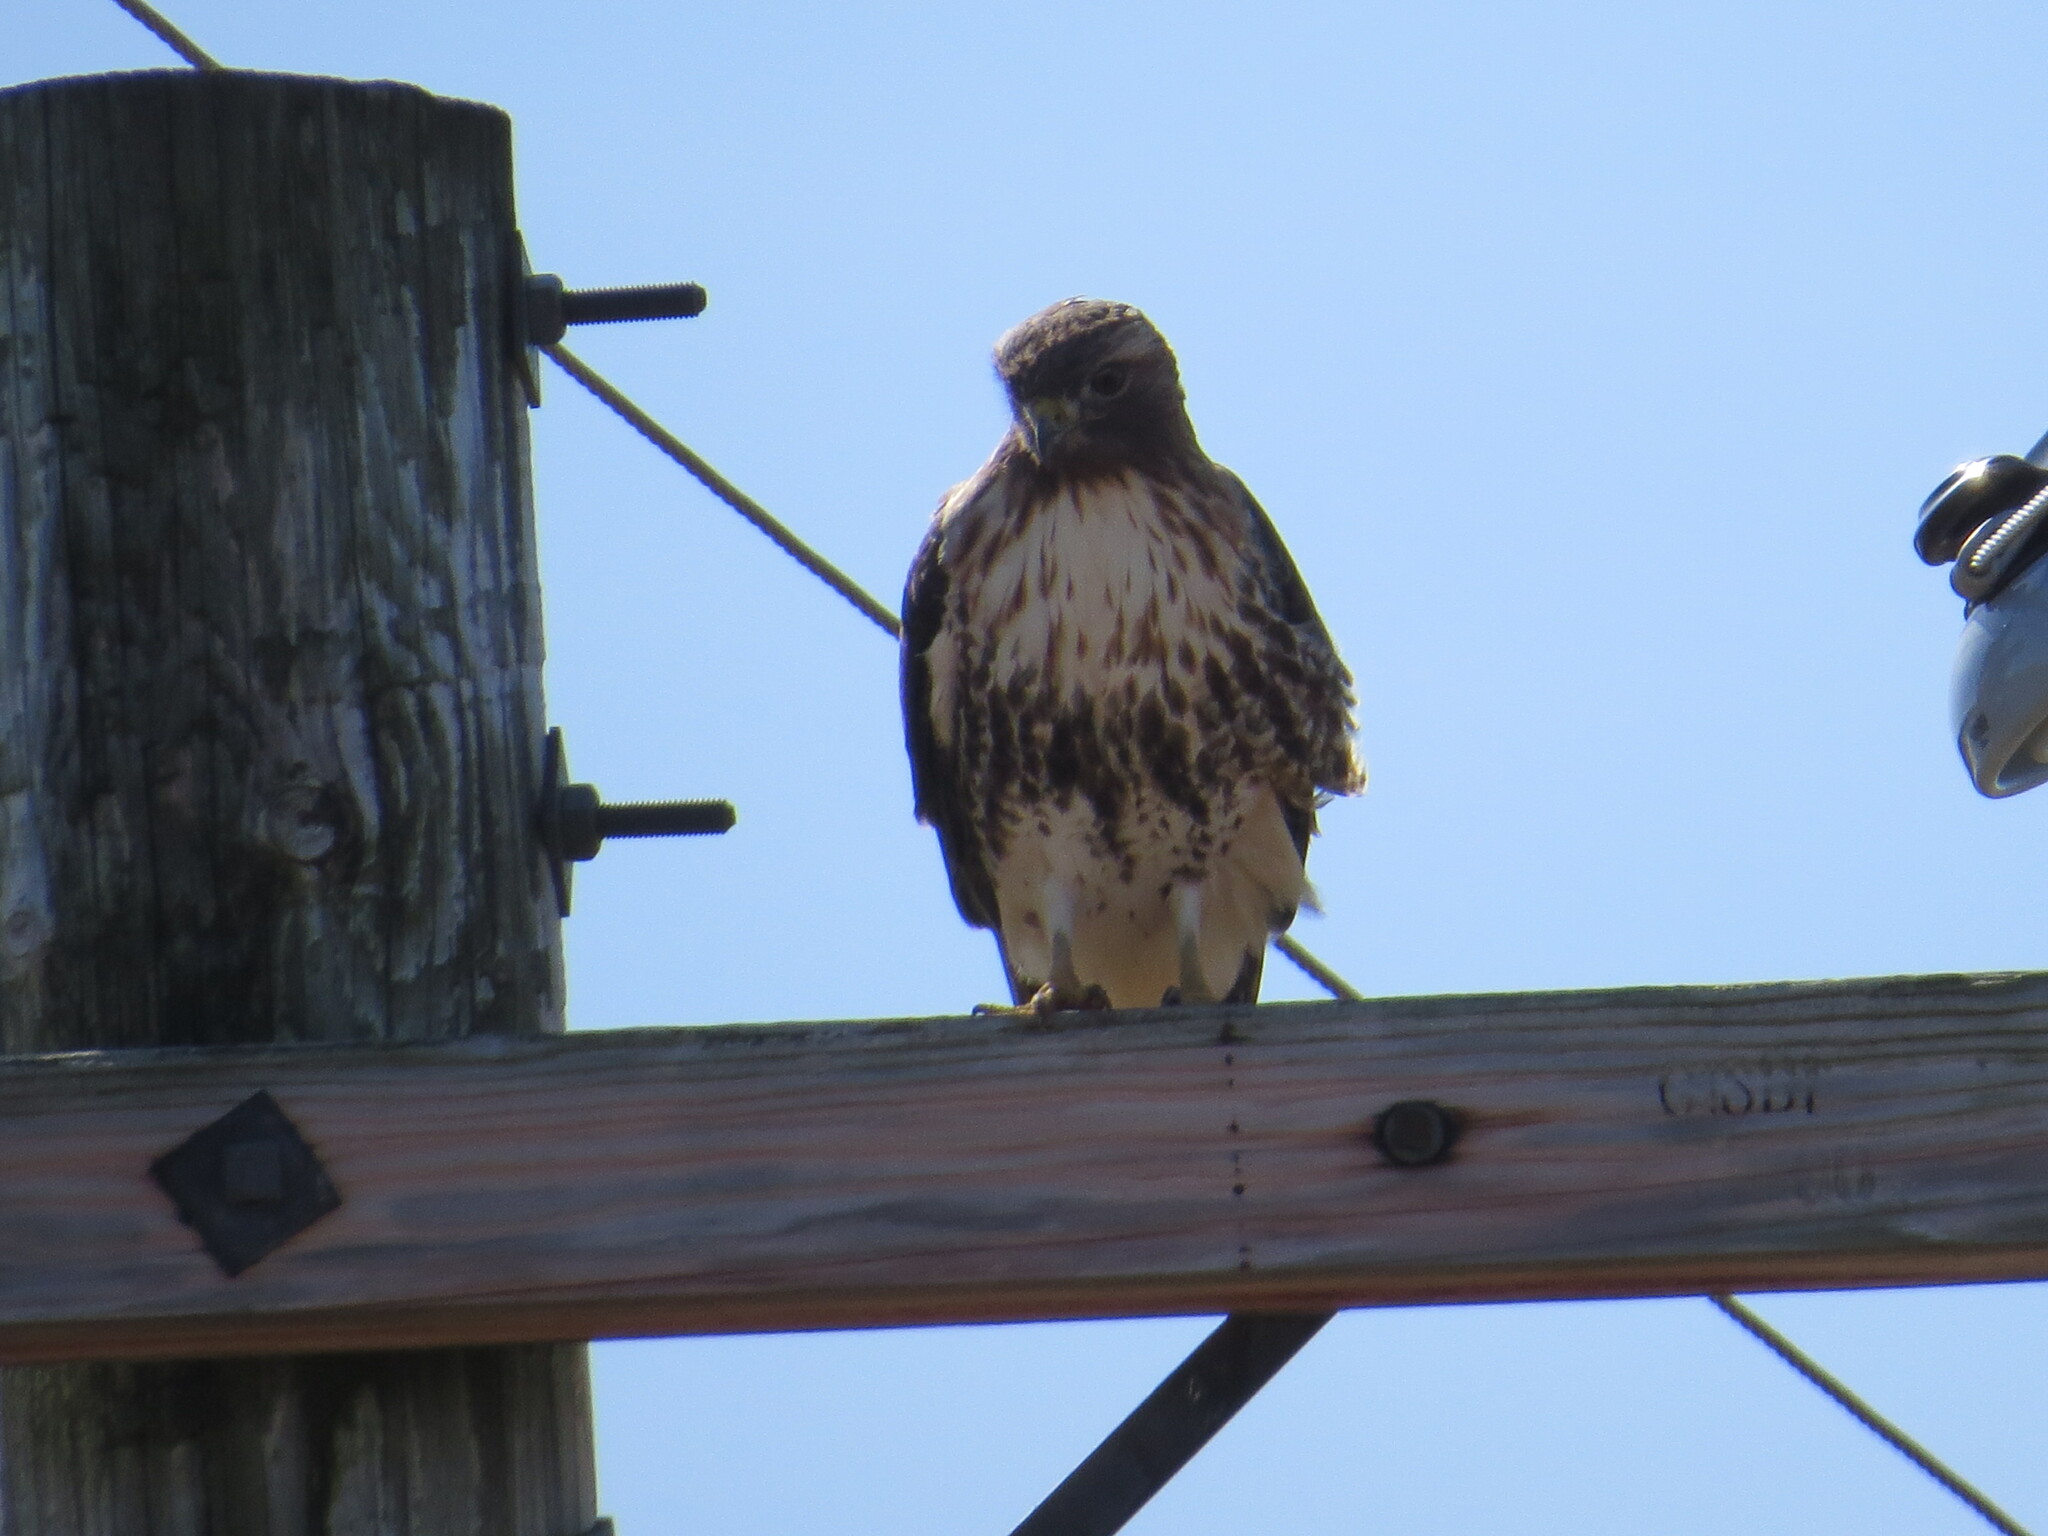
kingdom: Animalia
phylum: Chordata
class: Aves
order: Accipitriformes
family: Accipitridae
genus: Buteo
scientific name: Buteo jamaicensis
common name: Red-tailed hawk
